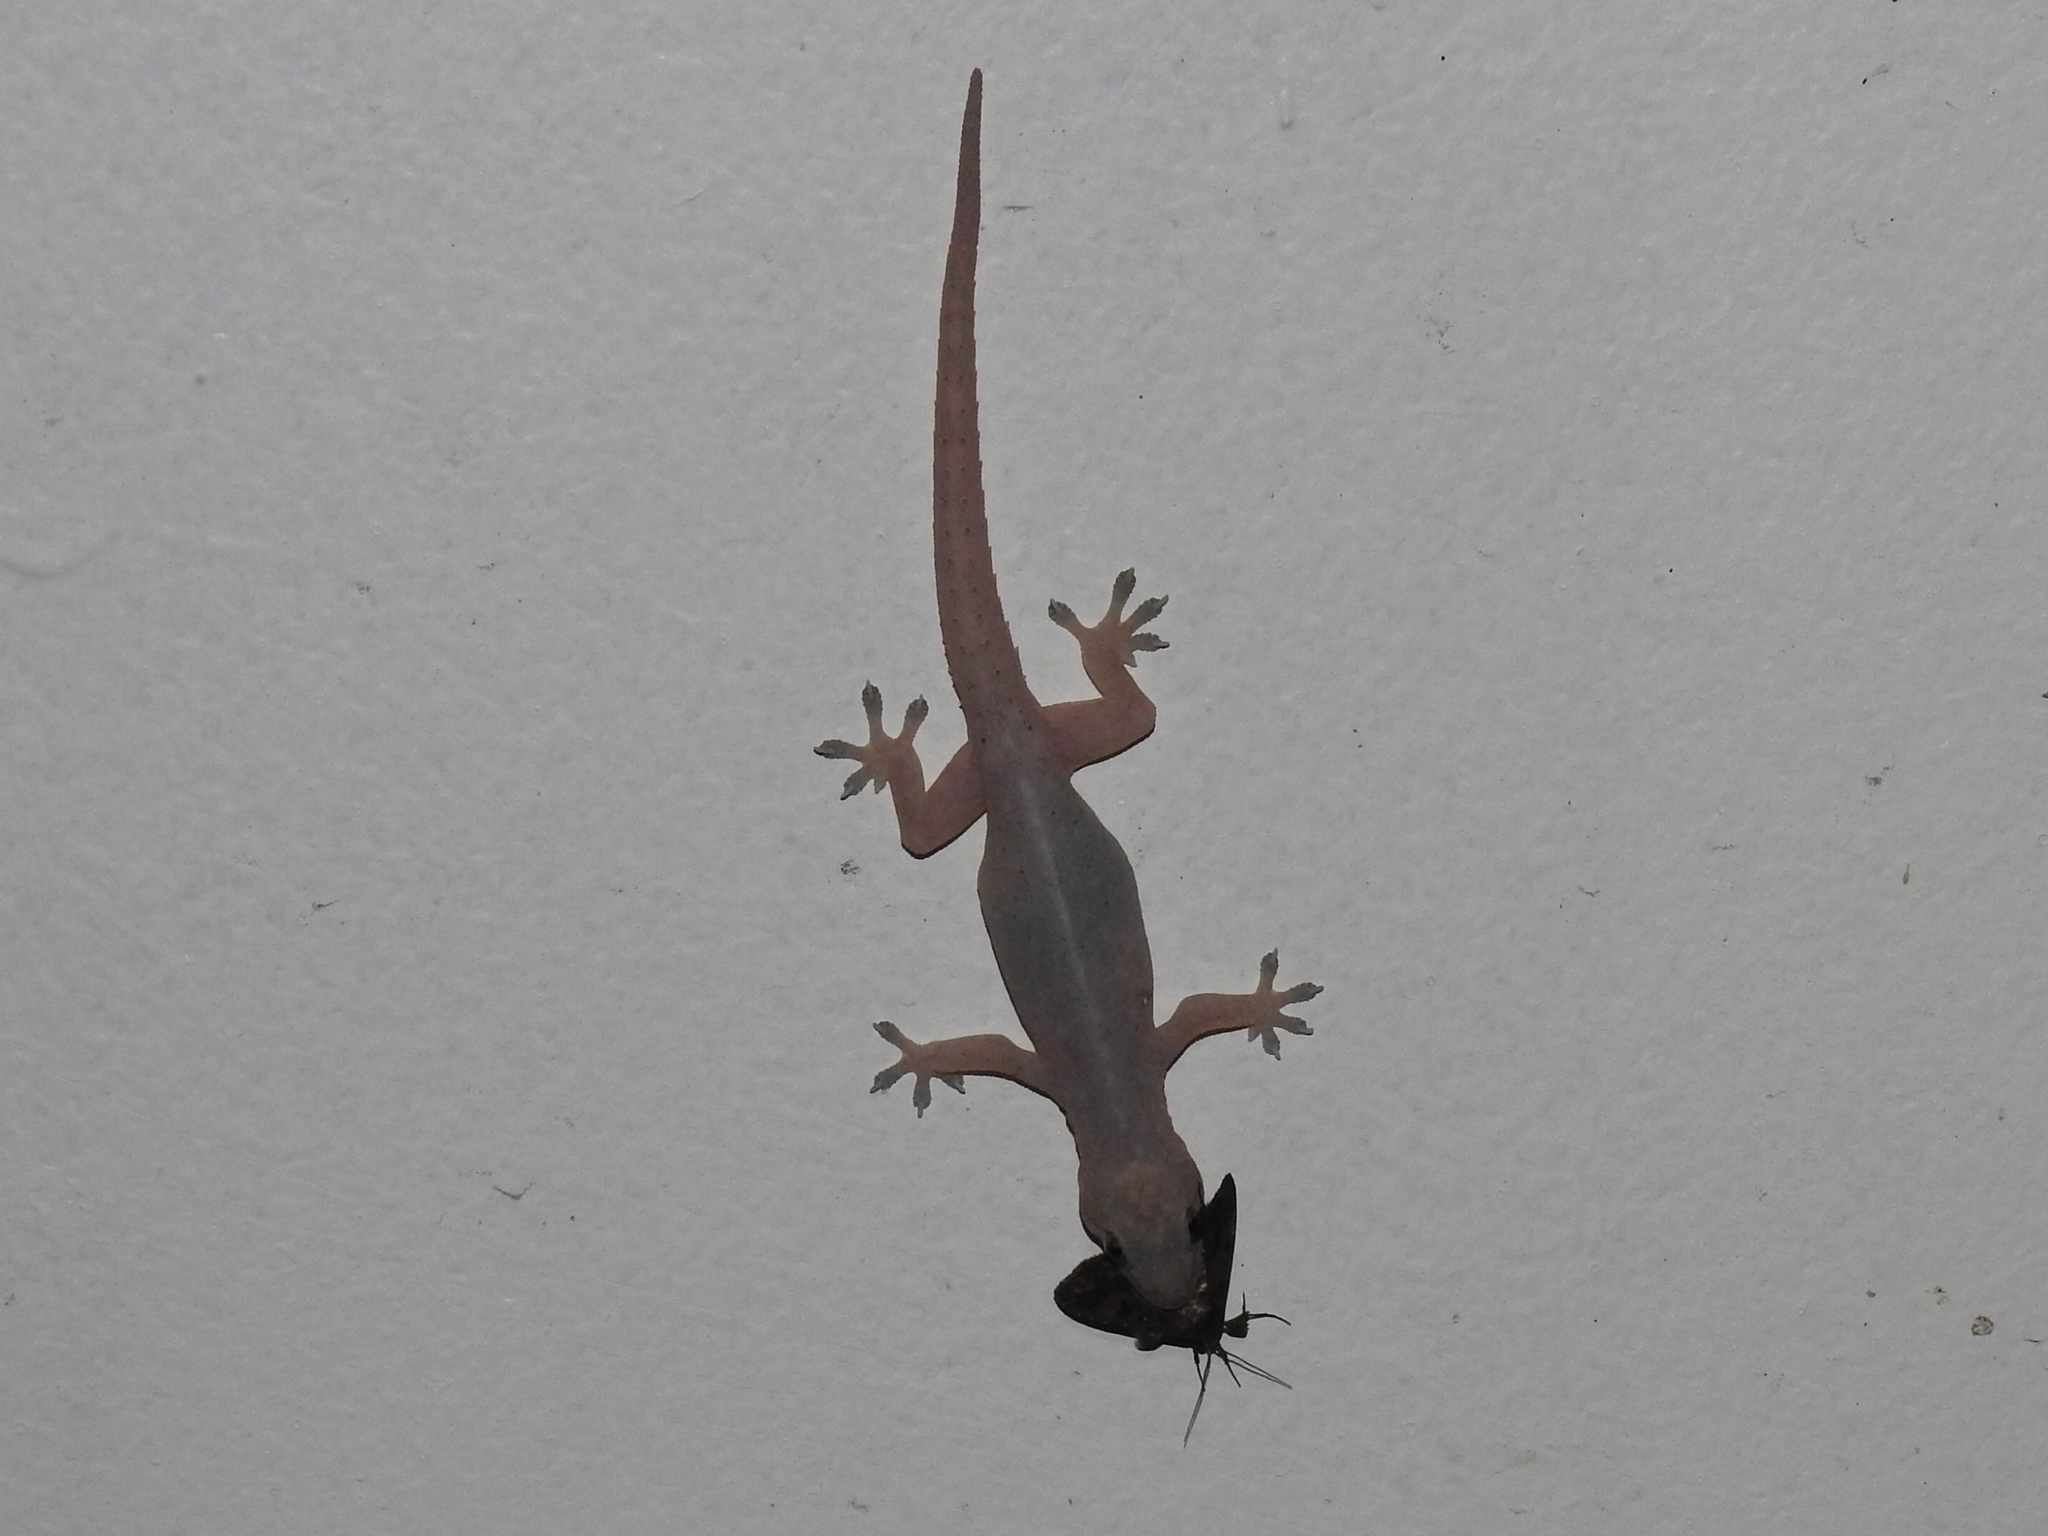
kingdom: Animalia
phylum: Chordata
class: Squamata
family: Gekkonidae
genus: Hemidactylus
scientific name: Hemidactylus frenatus
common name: Common house gecko
